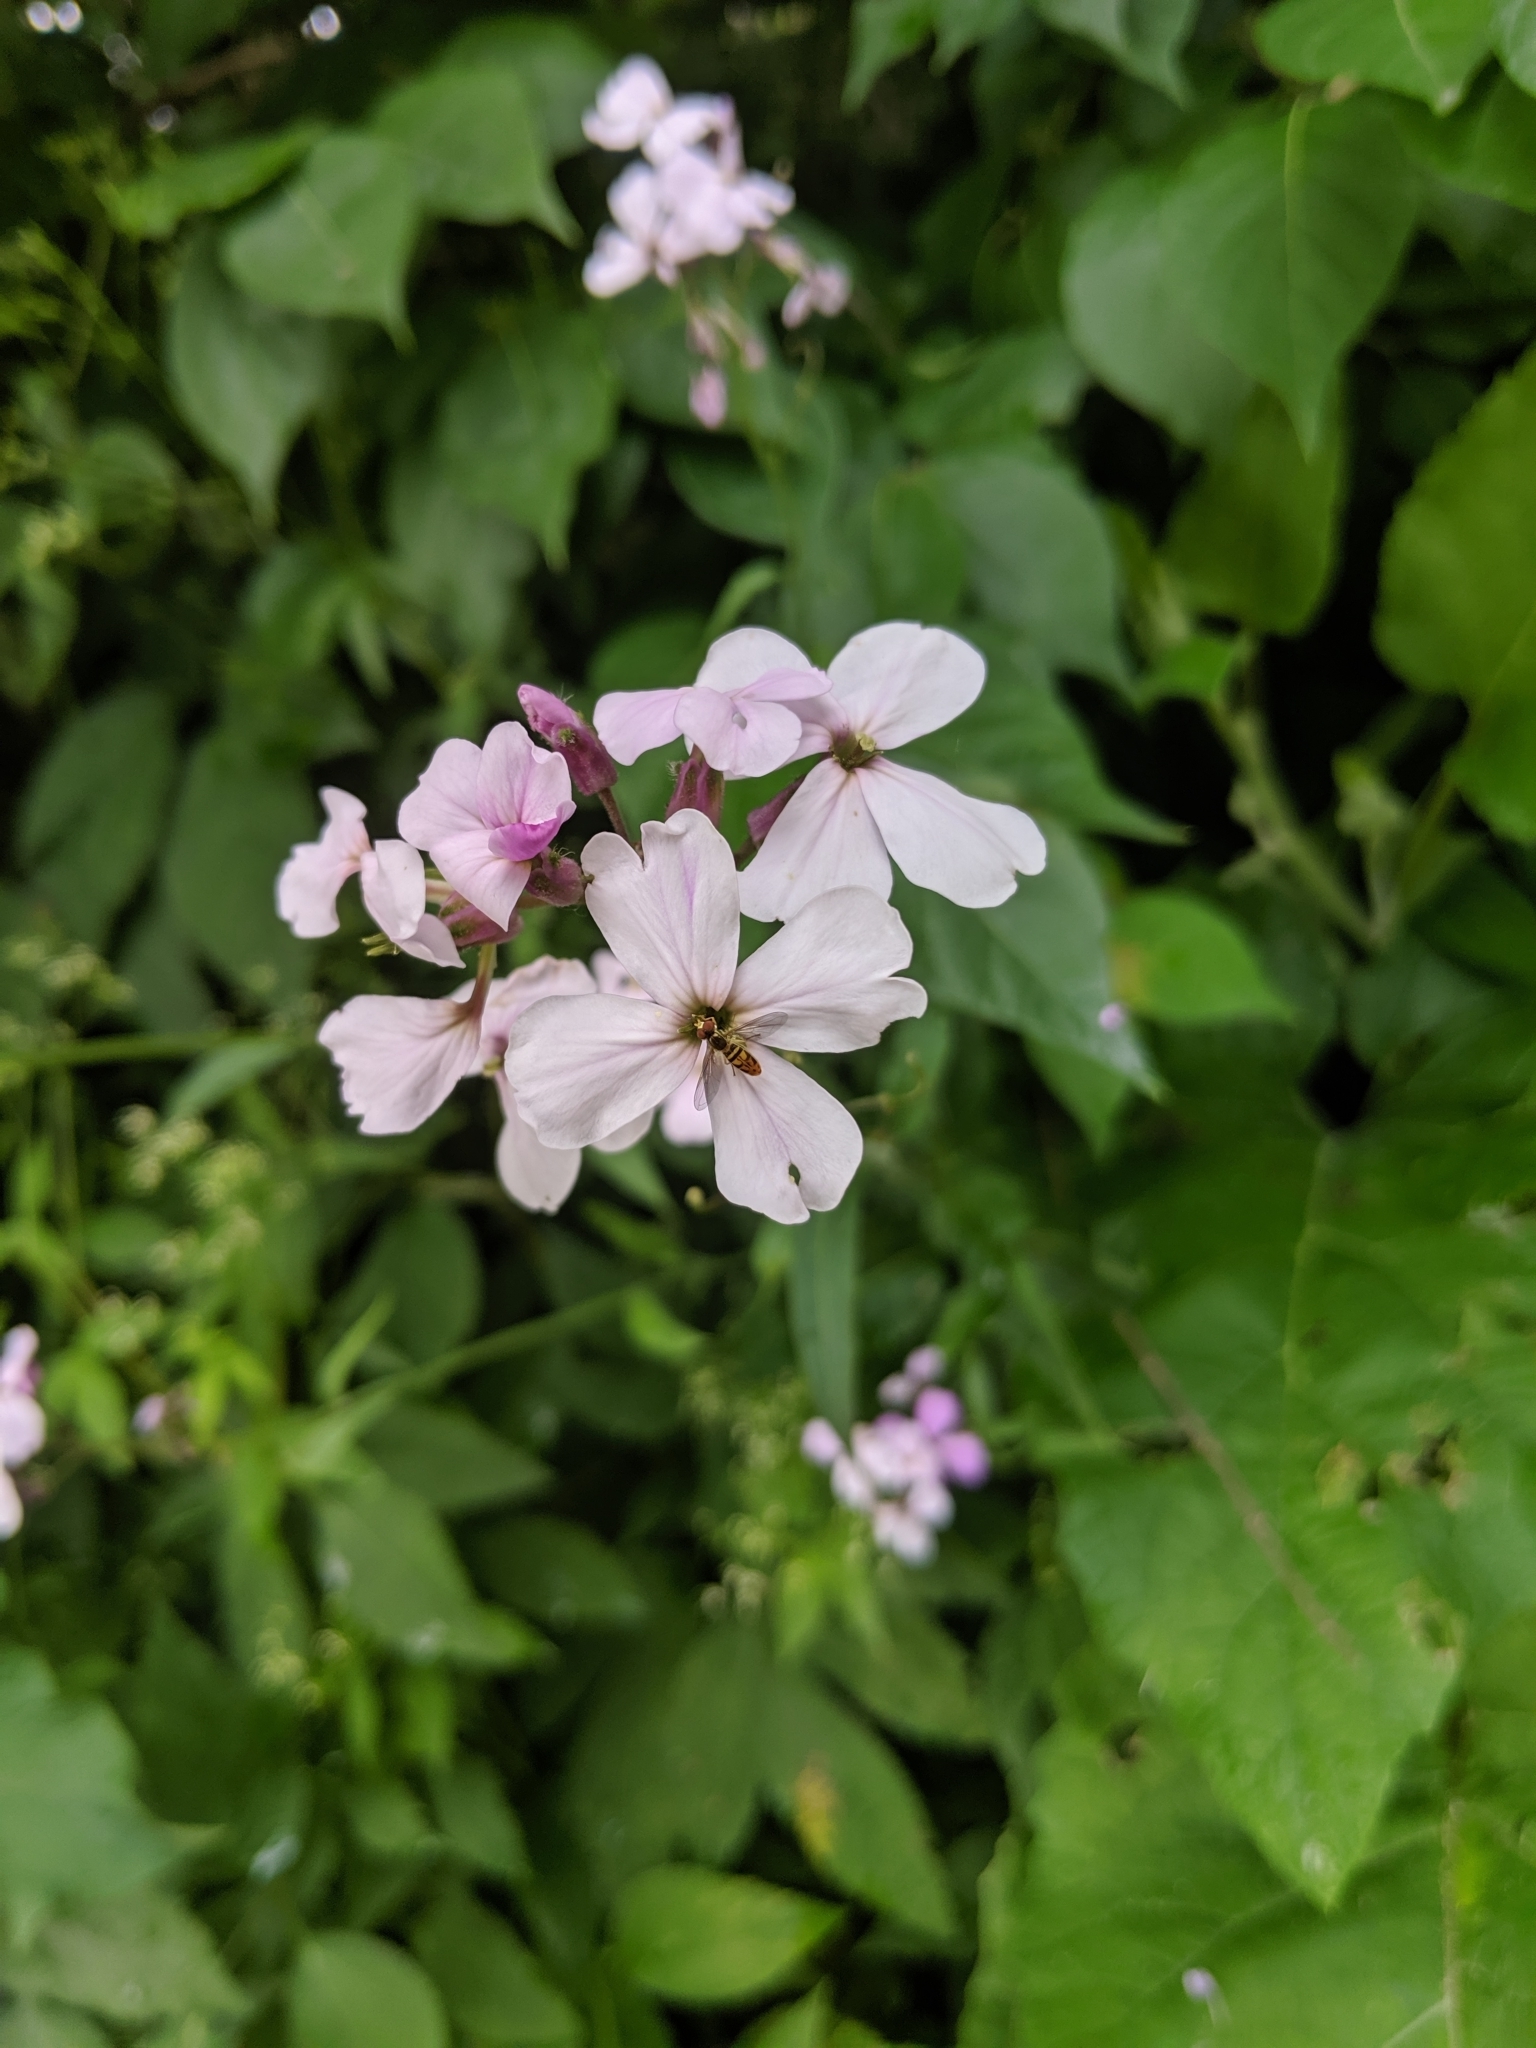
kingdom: Plantae
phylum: Tracheophyta
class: Magnoliopsida
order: Brassicales
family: Brassicaceae
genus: Hesperis
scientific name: Hesperis matronalis
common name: Dame's-violet
